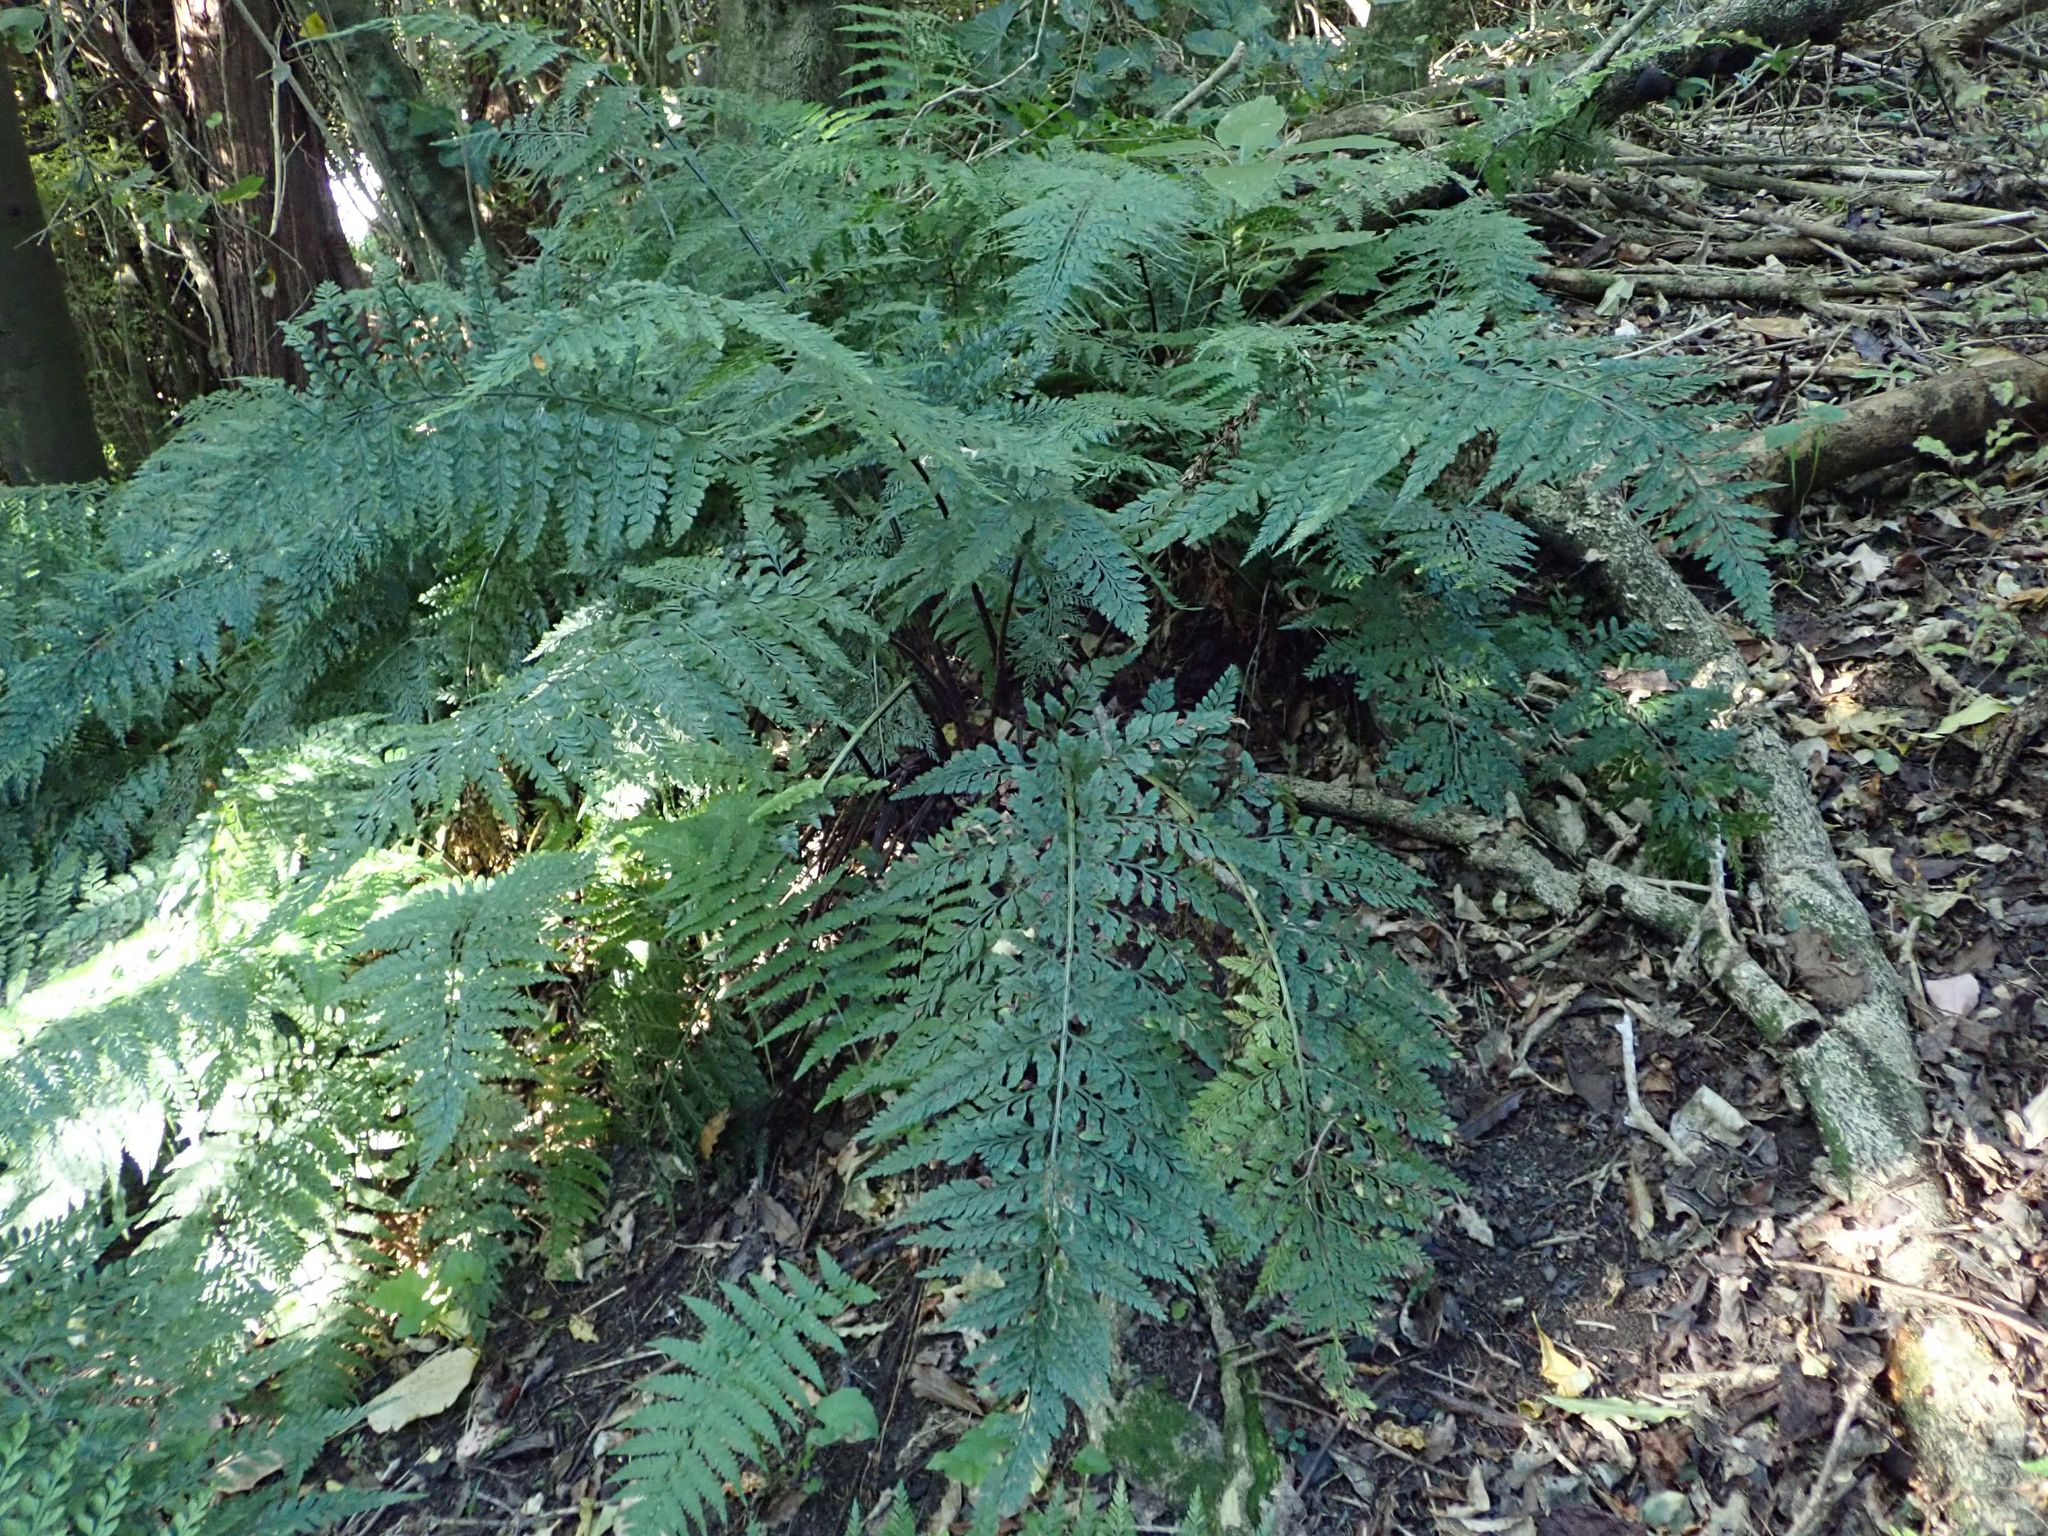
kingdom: Plantae
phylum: Tracheophyta
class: Polypodiopsida
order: Polypodiales
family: Aspleniaceae
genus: Asplenium
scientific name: Asplenium
